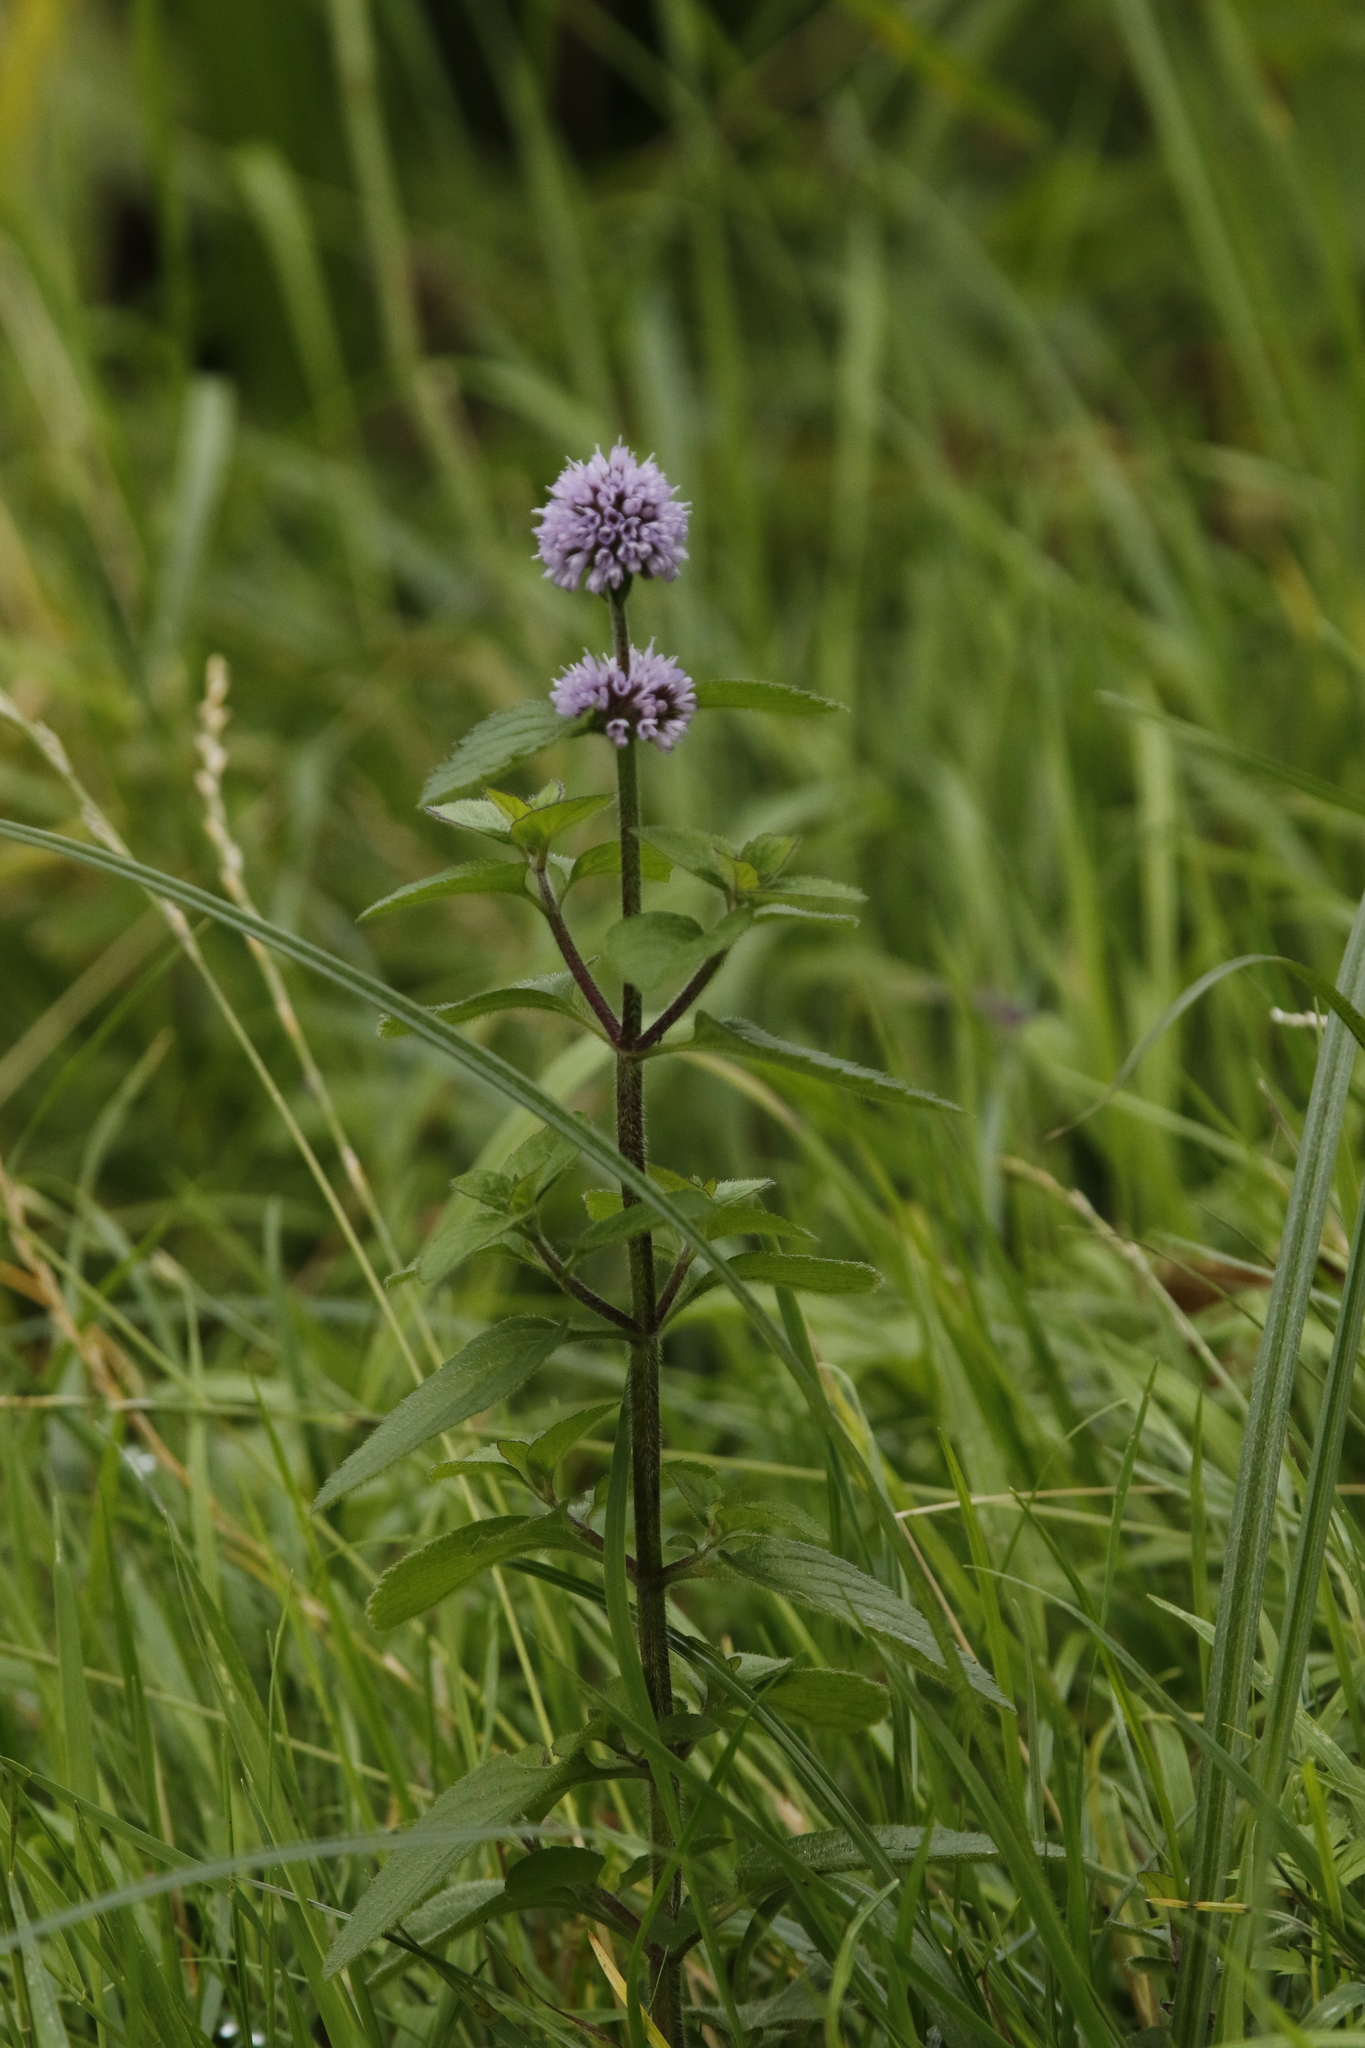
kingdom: Plantae
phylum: Tracheophyta
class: Magnoliopsida
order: Lamiales
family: Lamiaceae
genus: Mentha
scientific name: Mentha aquatica
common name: Water mint
